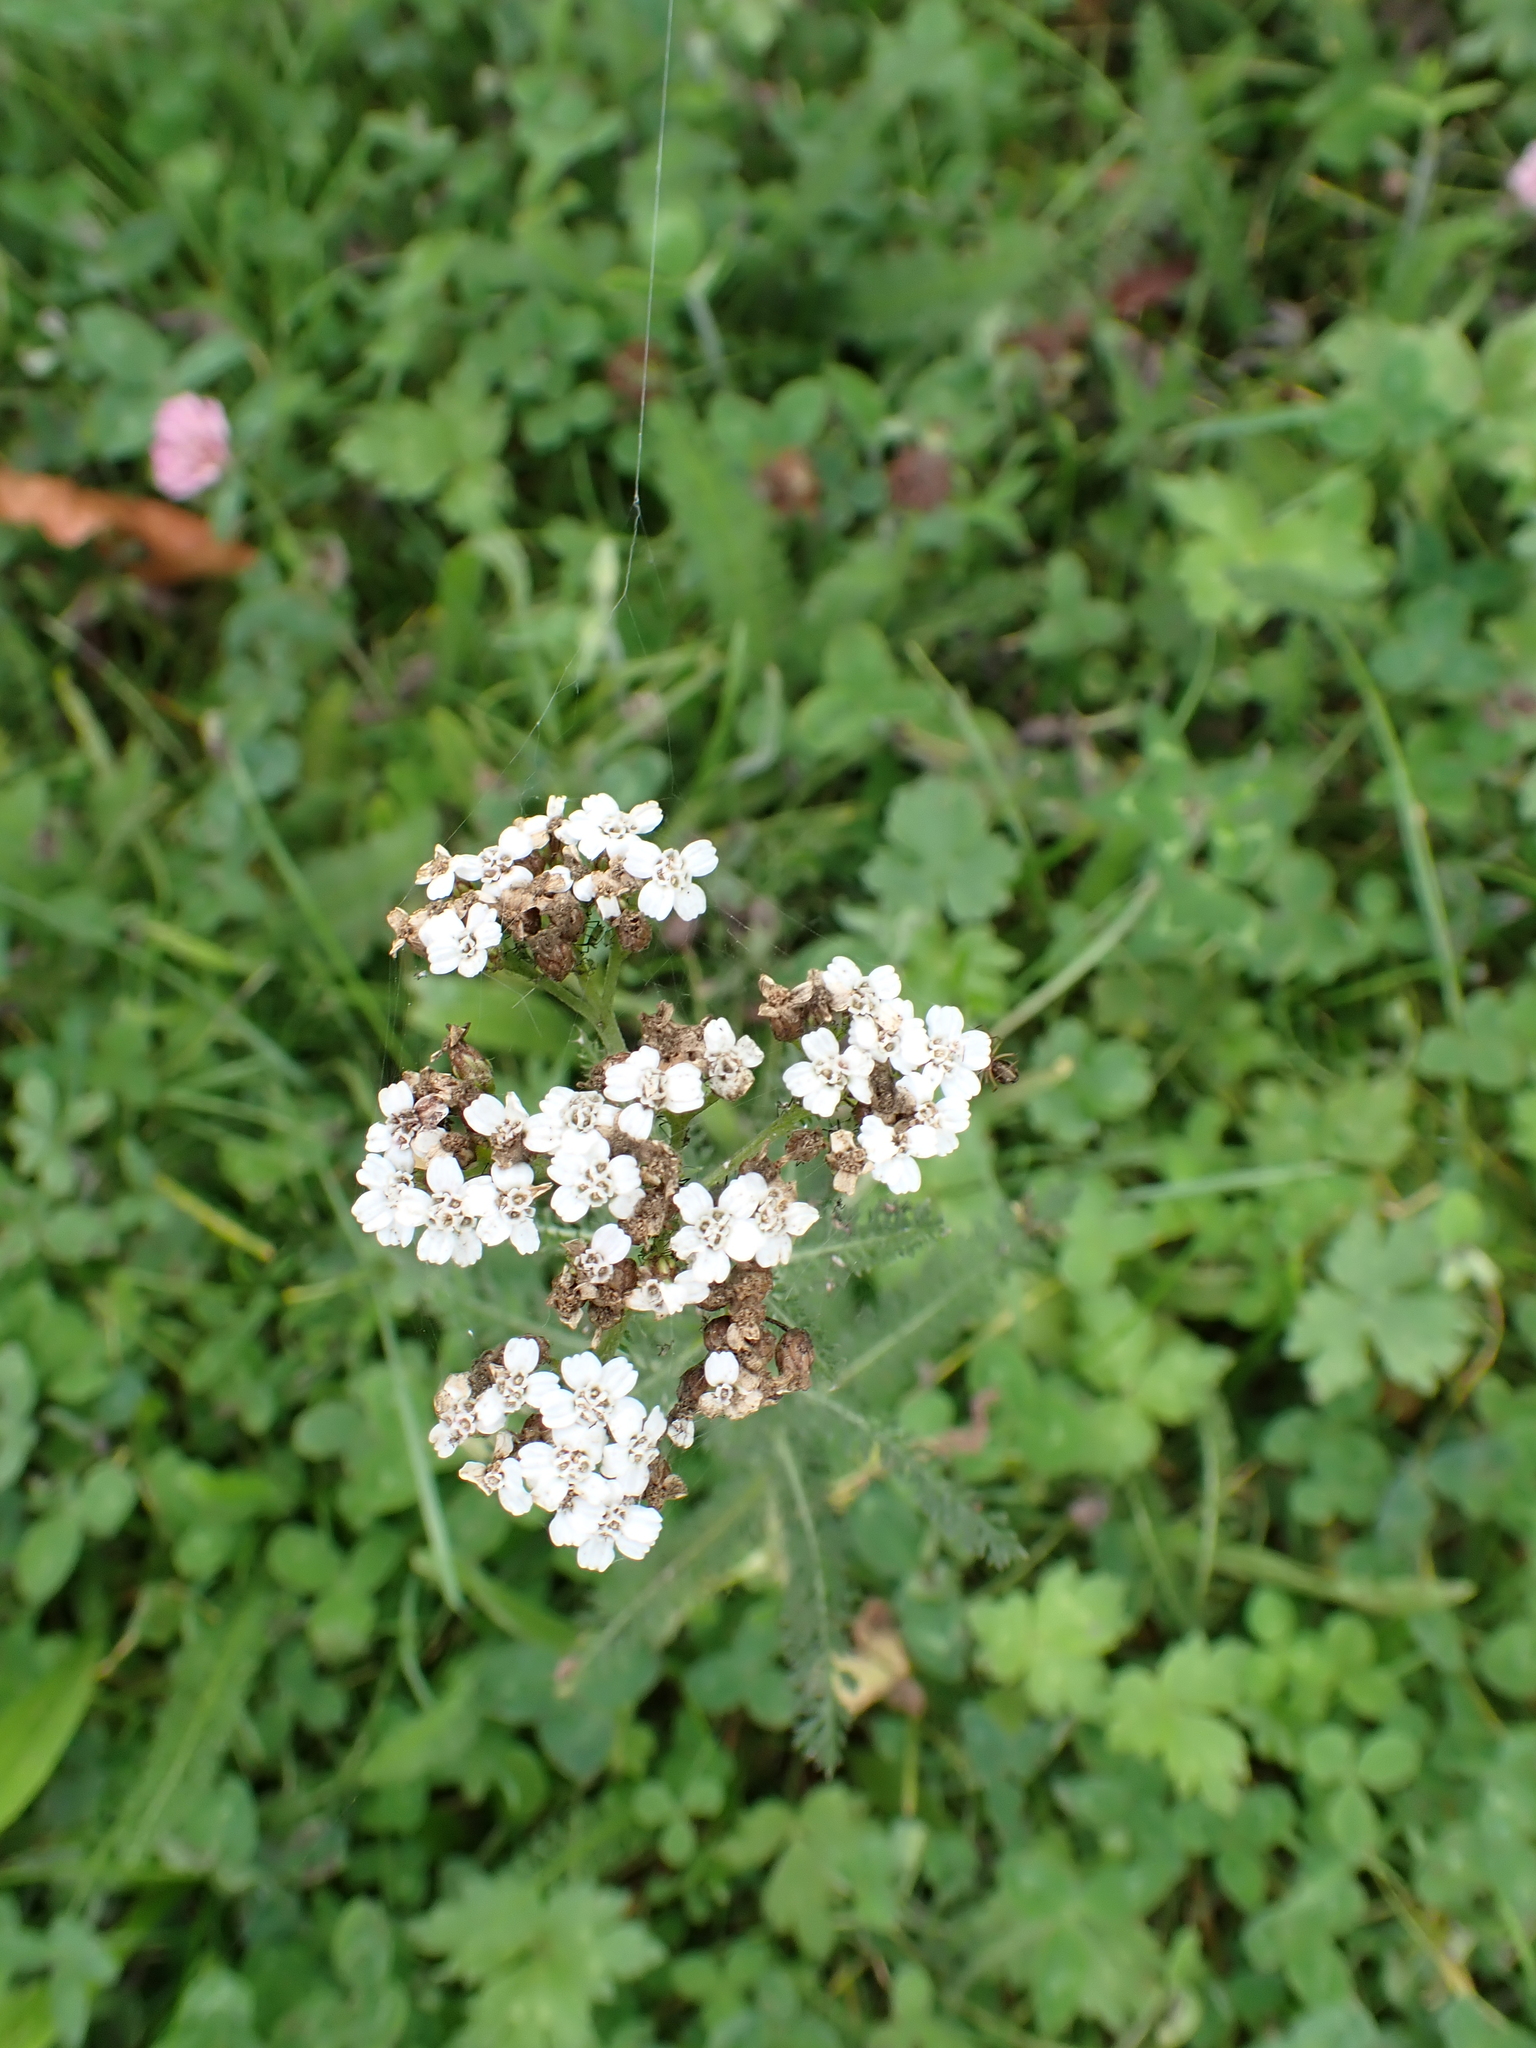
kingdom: Plantae
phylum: Tracheophyta
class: Magnoliopsida
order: Asterales
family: Asteraceae
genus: Achillea
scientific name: Achillea millefolium
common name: Yarrow
